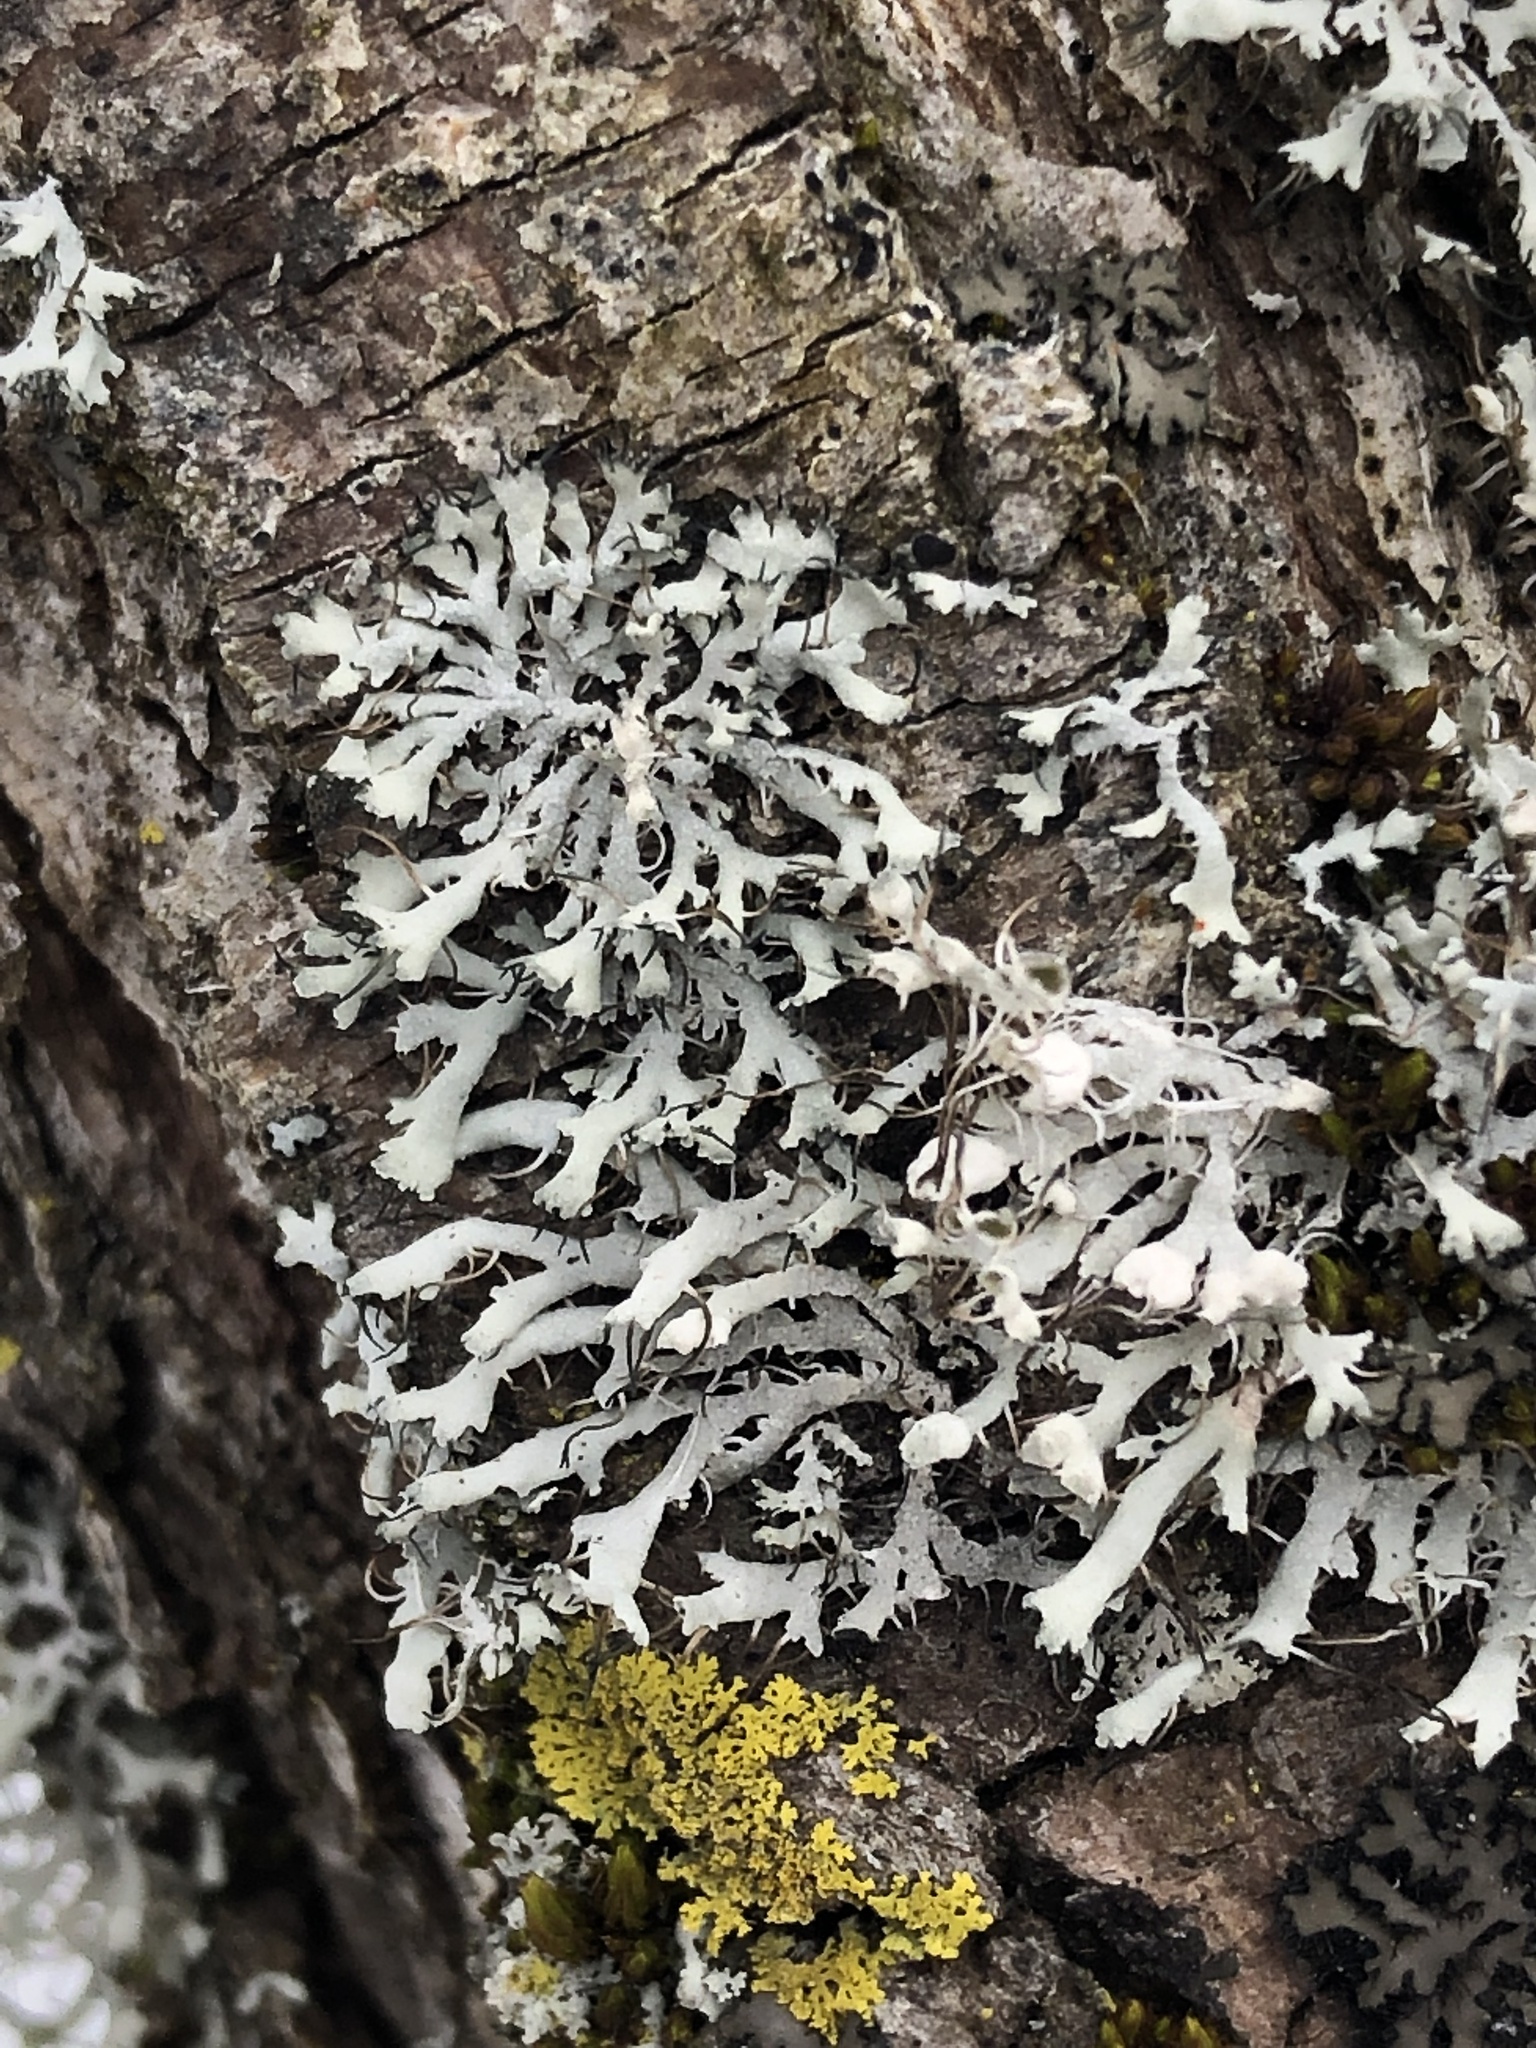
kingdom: Fungi
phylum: Ascomycota
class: Lecanoromycetes
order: Caliciales
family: Physciaceae
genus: Physcia
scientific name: Physcia adscendens
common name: Hooded rosette lichen
